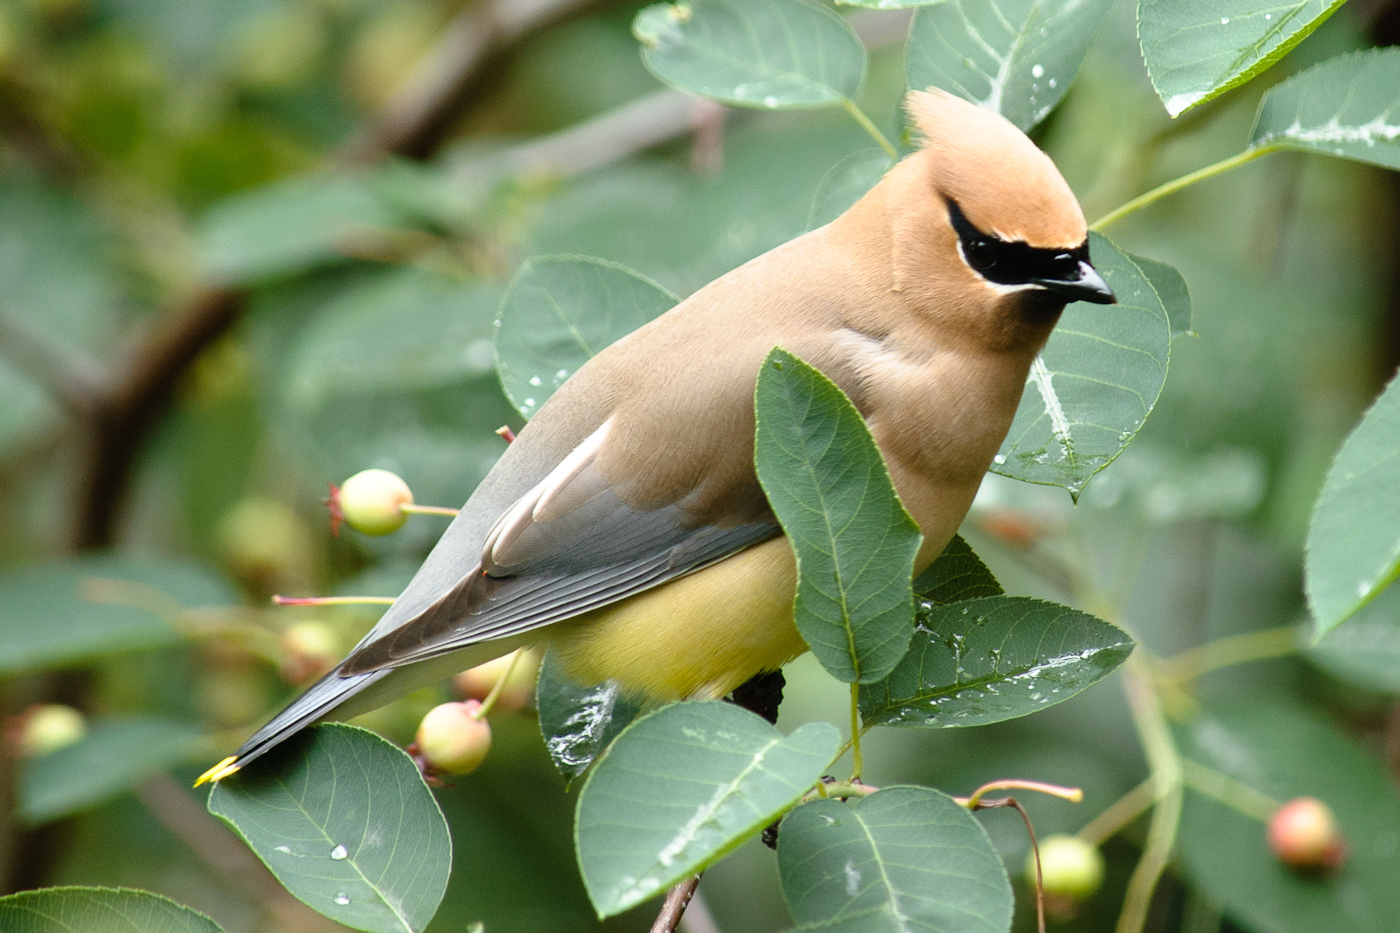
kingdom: Animalia
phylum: Chordata
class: Aves
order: Passeriformes
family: Bombycillidae
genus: Bombycilla
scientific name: Bombycilla cedrorum
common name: Cedar waxwing
